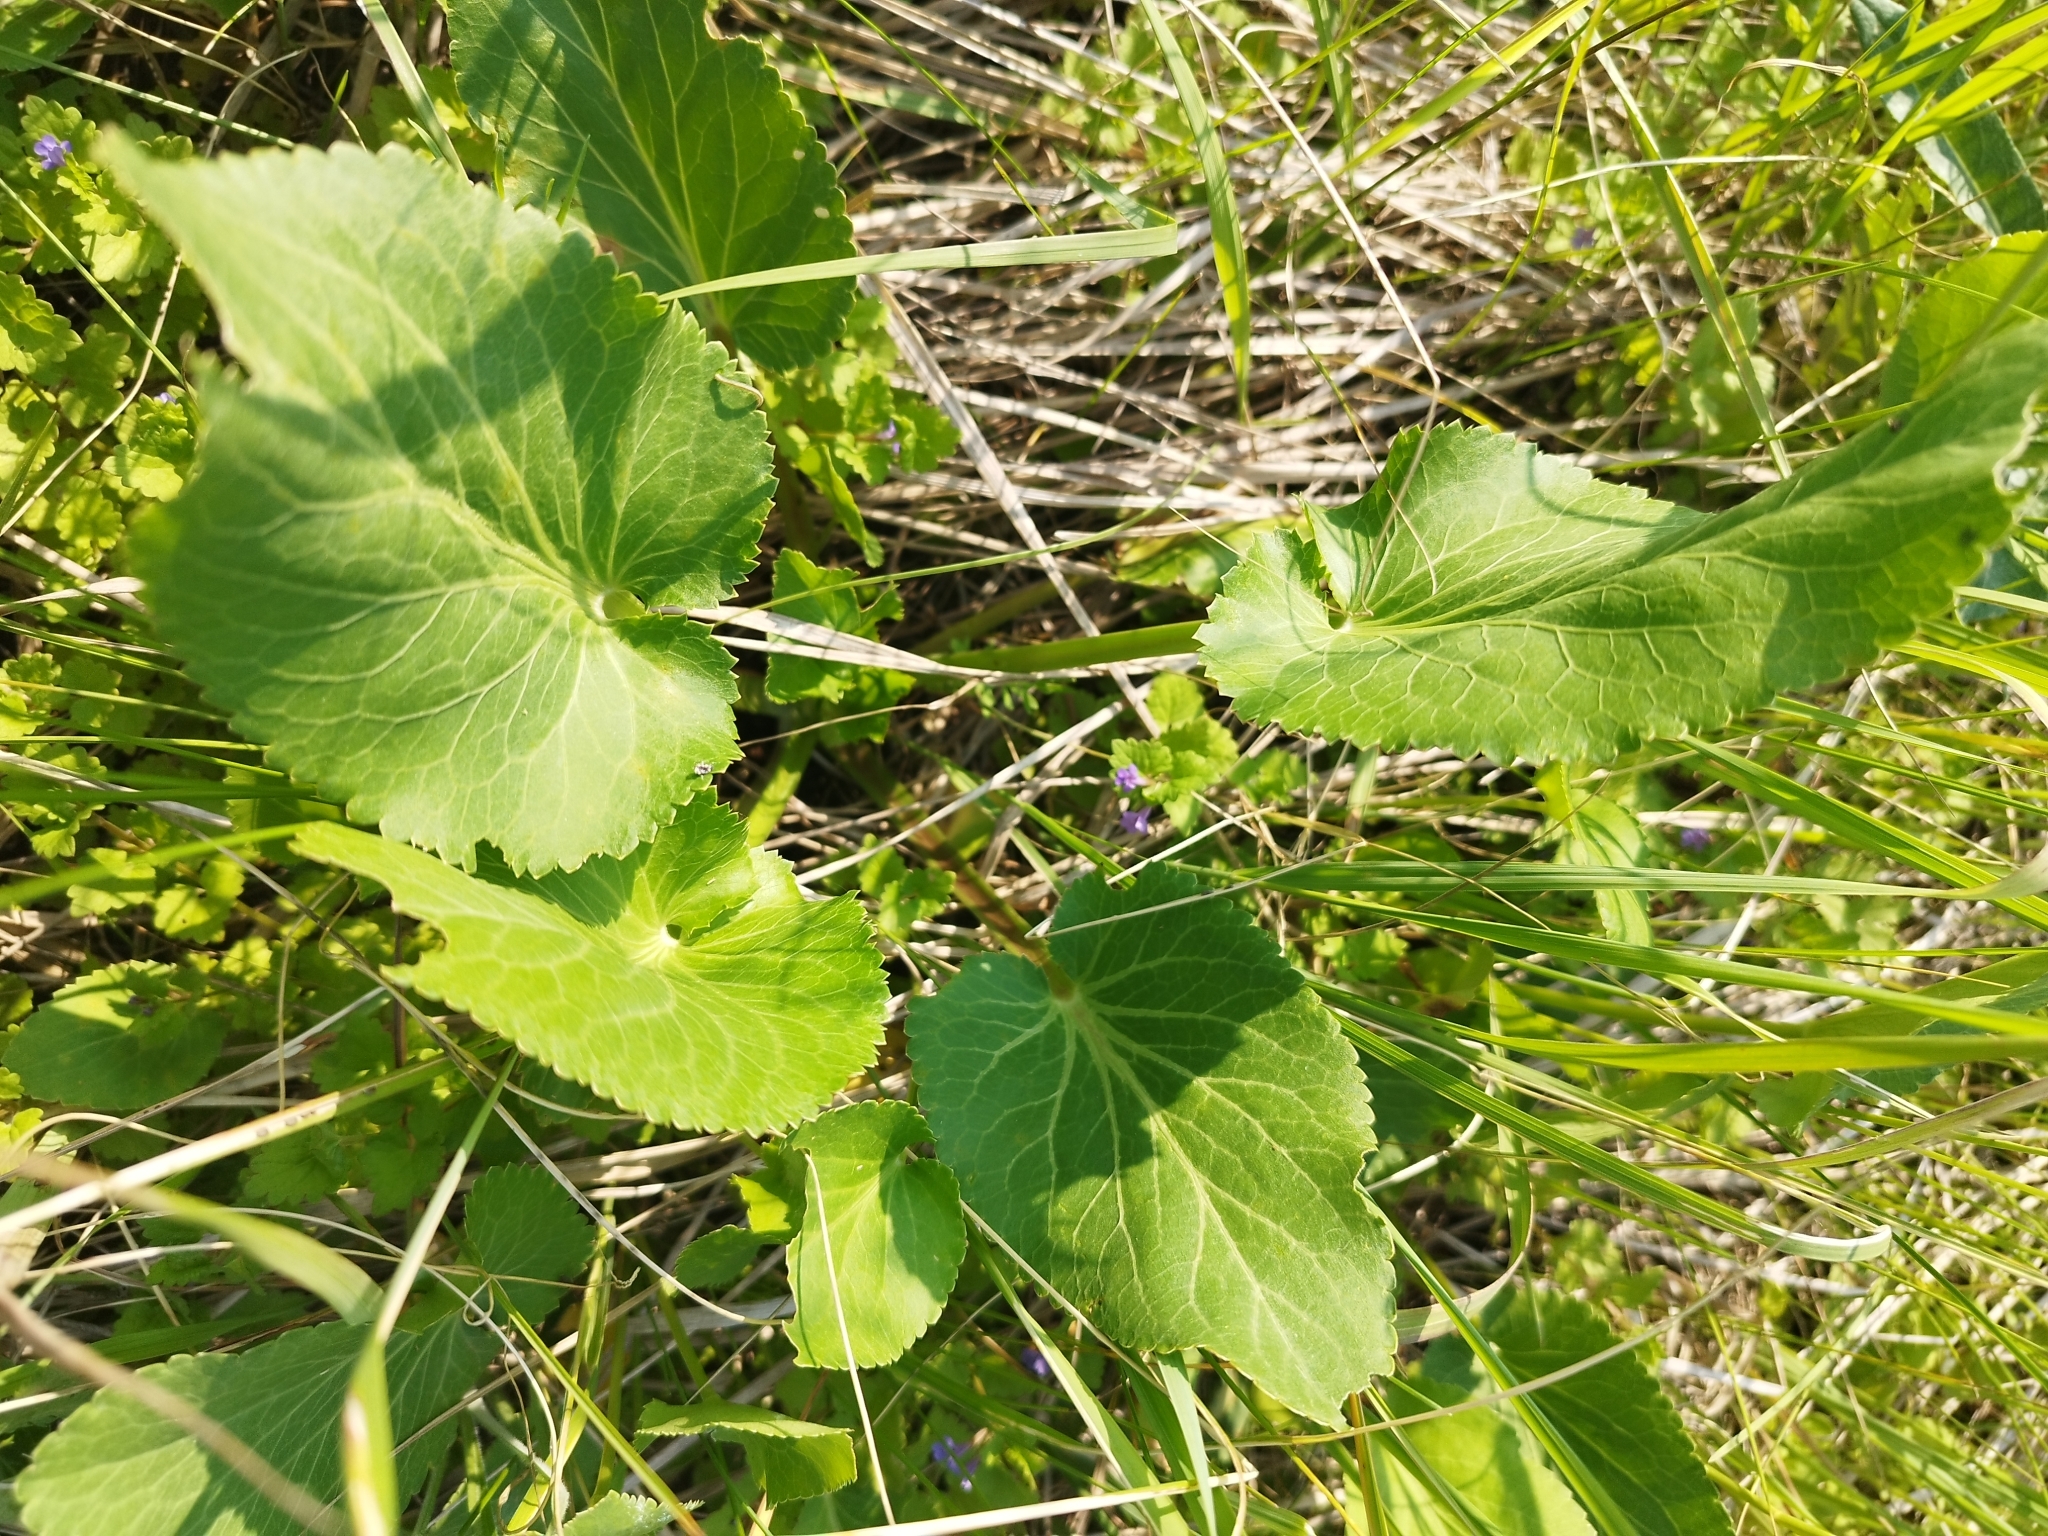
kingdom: Plantae
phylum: Tracheophyta
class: Magnoliopsida
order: Apiales
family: Apiaceae
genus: Eryngium
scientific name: Eryngium planum
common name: Blue eryngo
